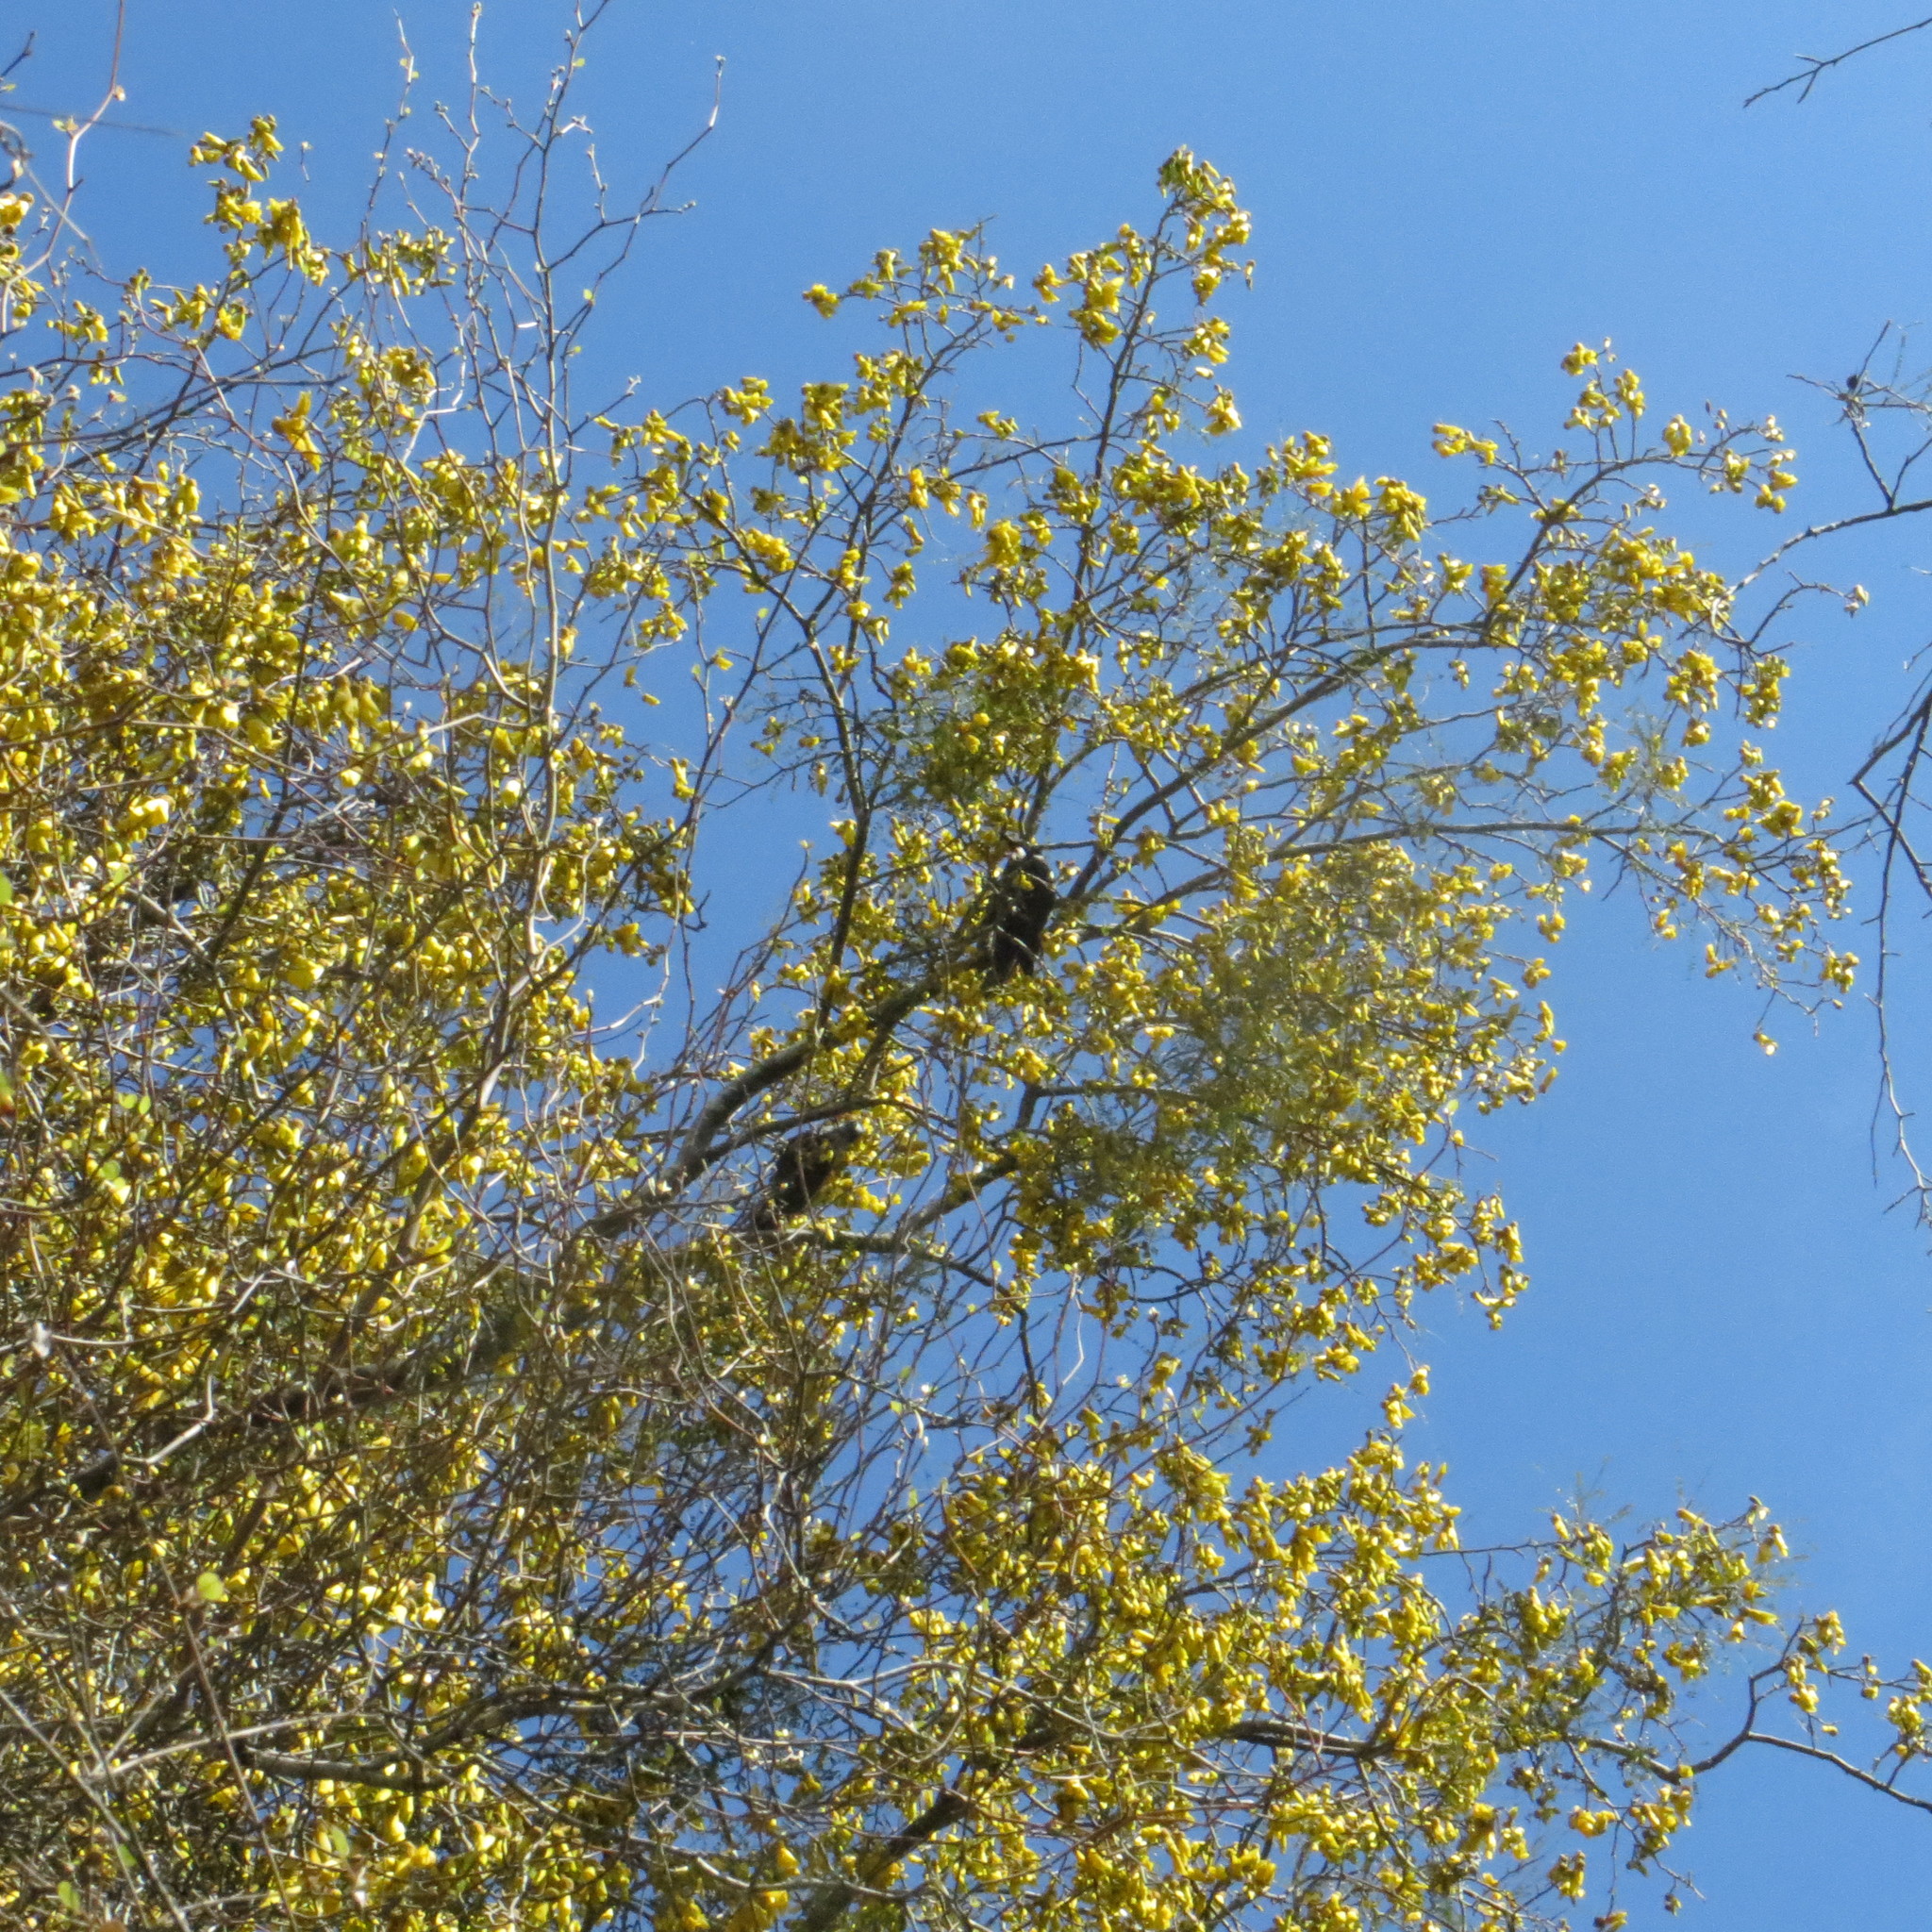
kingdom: Plantae
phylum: Tracheophyta
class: Magnoliopsida
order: Fabales
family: Fabaceae
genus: Sophora
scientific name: Sophora microphylla
